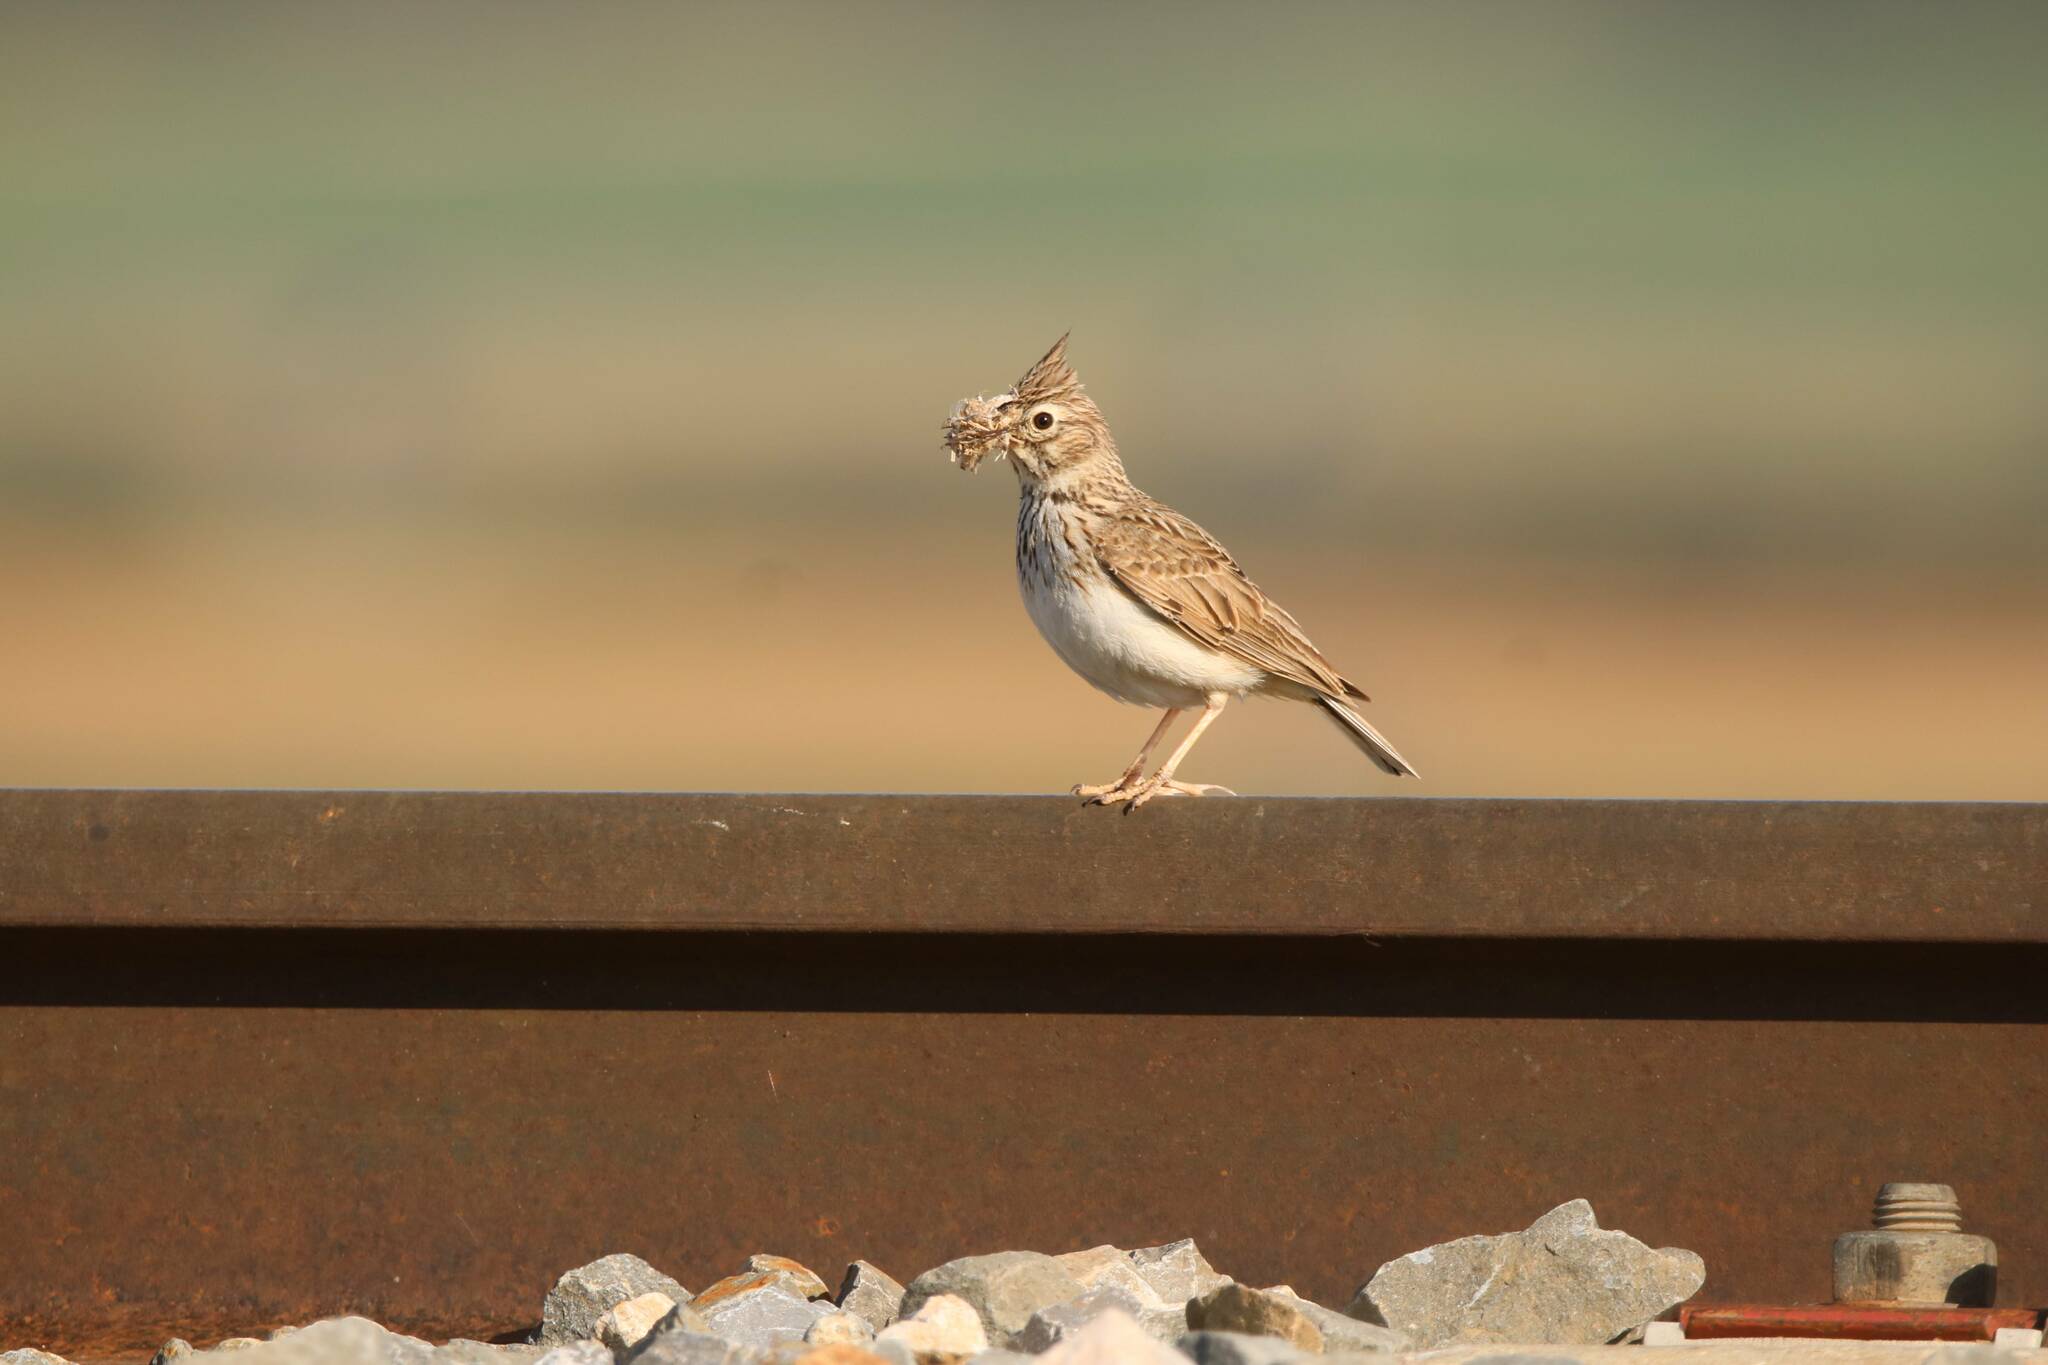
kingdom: Animalia
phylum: Chordata
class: Aves
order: Passeriformes
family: Alaudidae
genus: Galerida
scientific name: Galerida cristata
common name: Crested lark
